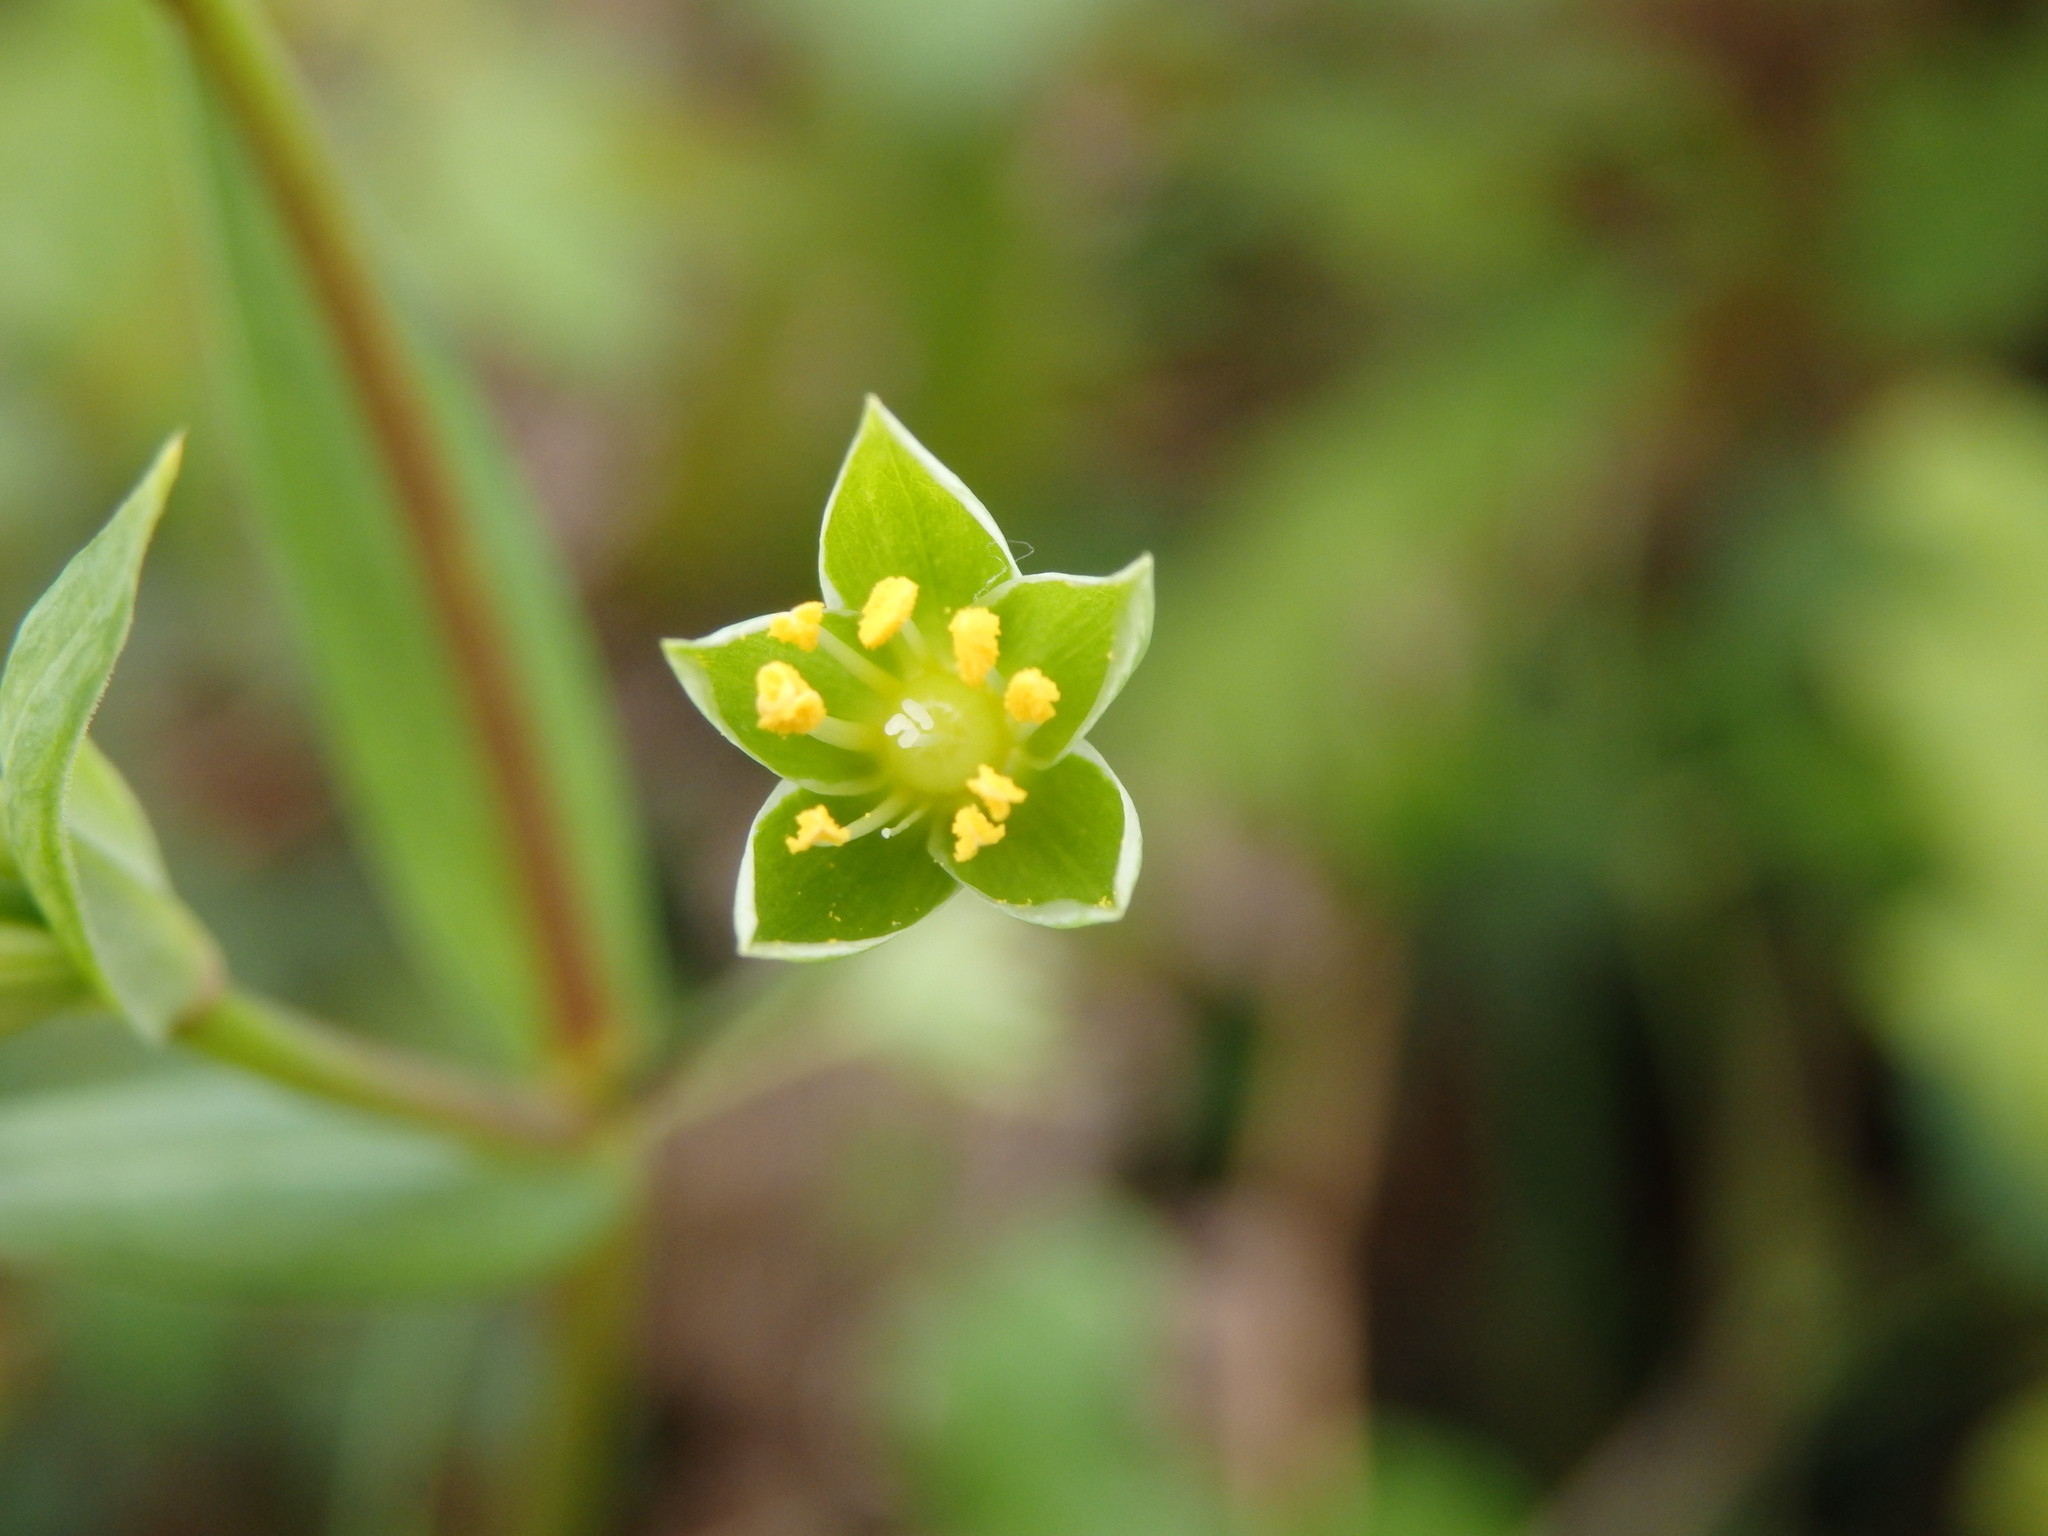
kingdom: Plantae
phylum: Tracheophyta
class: Magnoliopsida
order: Caryophyllales
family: Caryophyllaceae
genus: Rabelera
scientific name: Rabelera holostea
